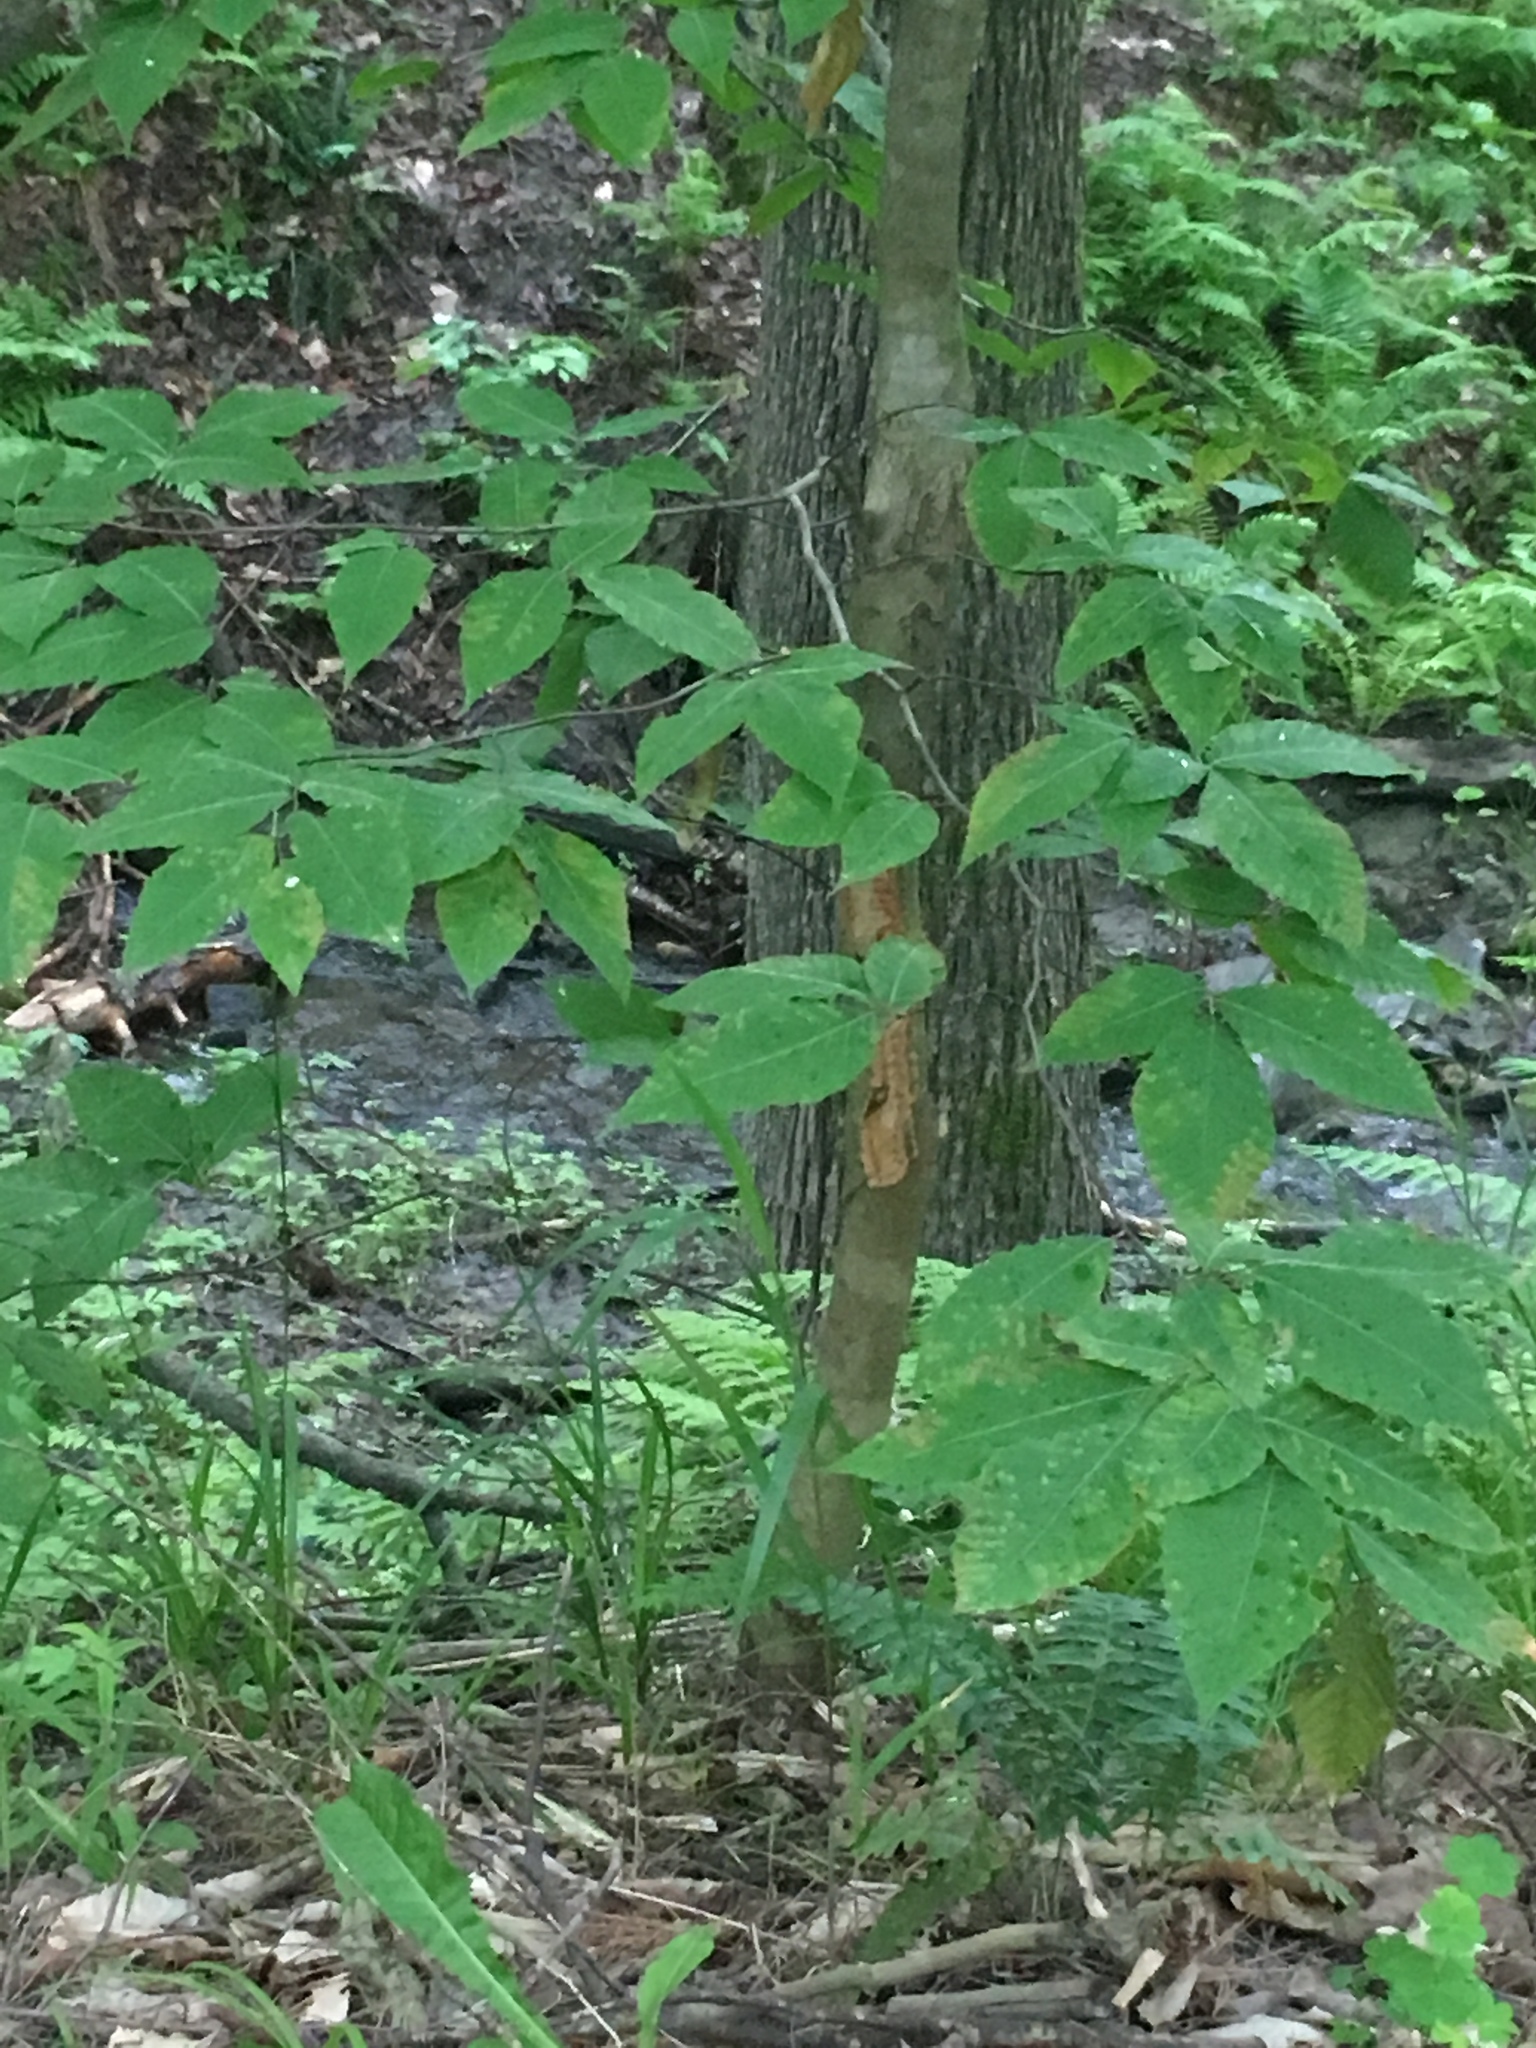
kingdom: Plantae
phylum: Tracheophyta
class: Magnoliopsida
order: Fagales
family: Fagaceae
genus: Fagus
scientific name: Fagus grandifolia
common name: American beech
